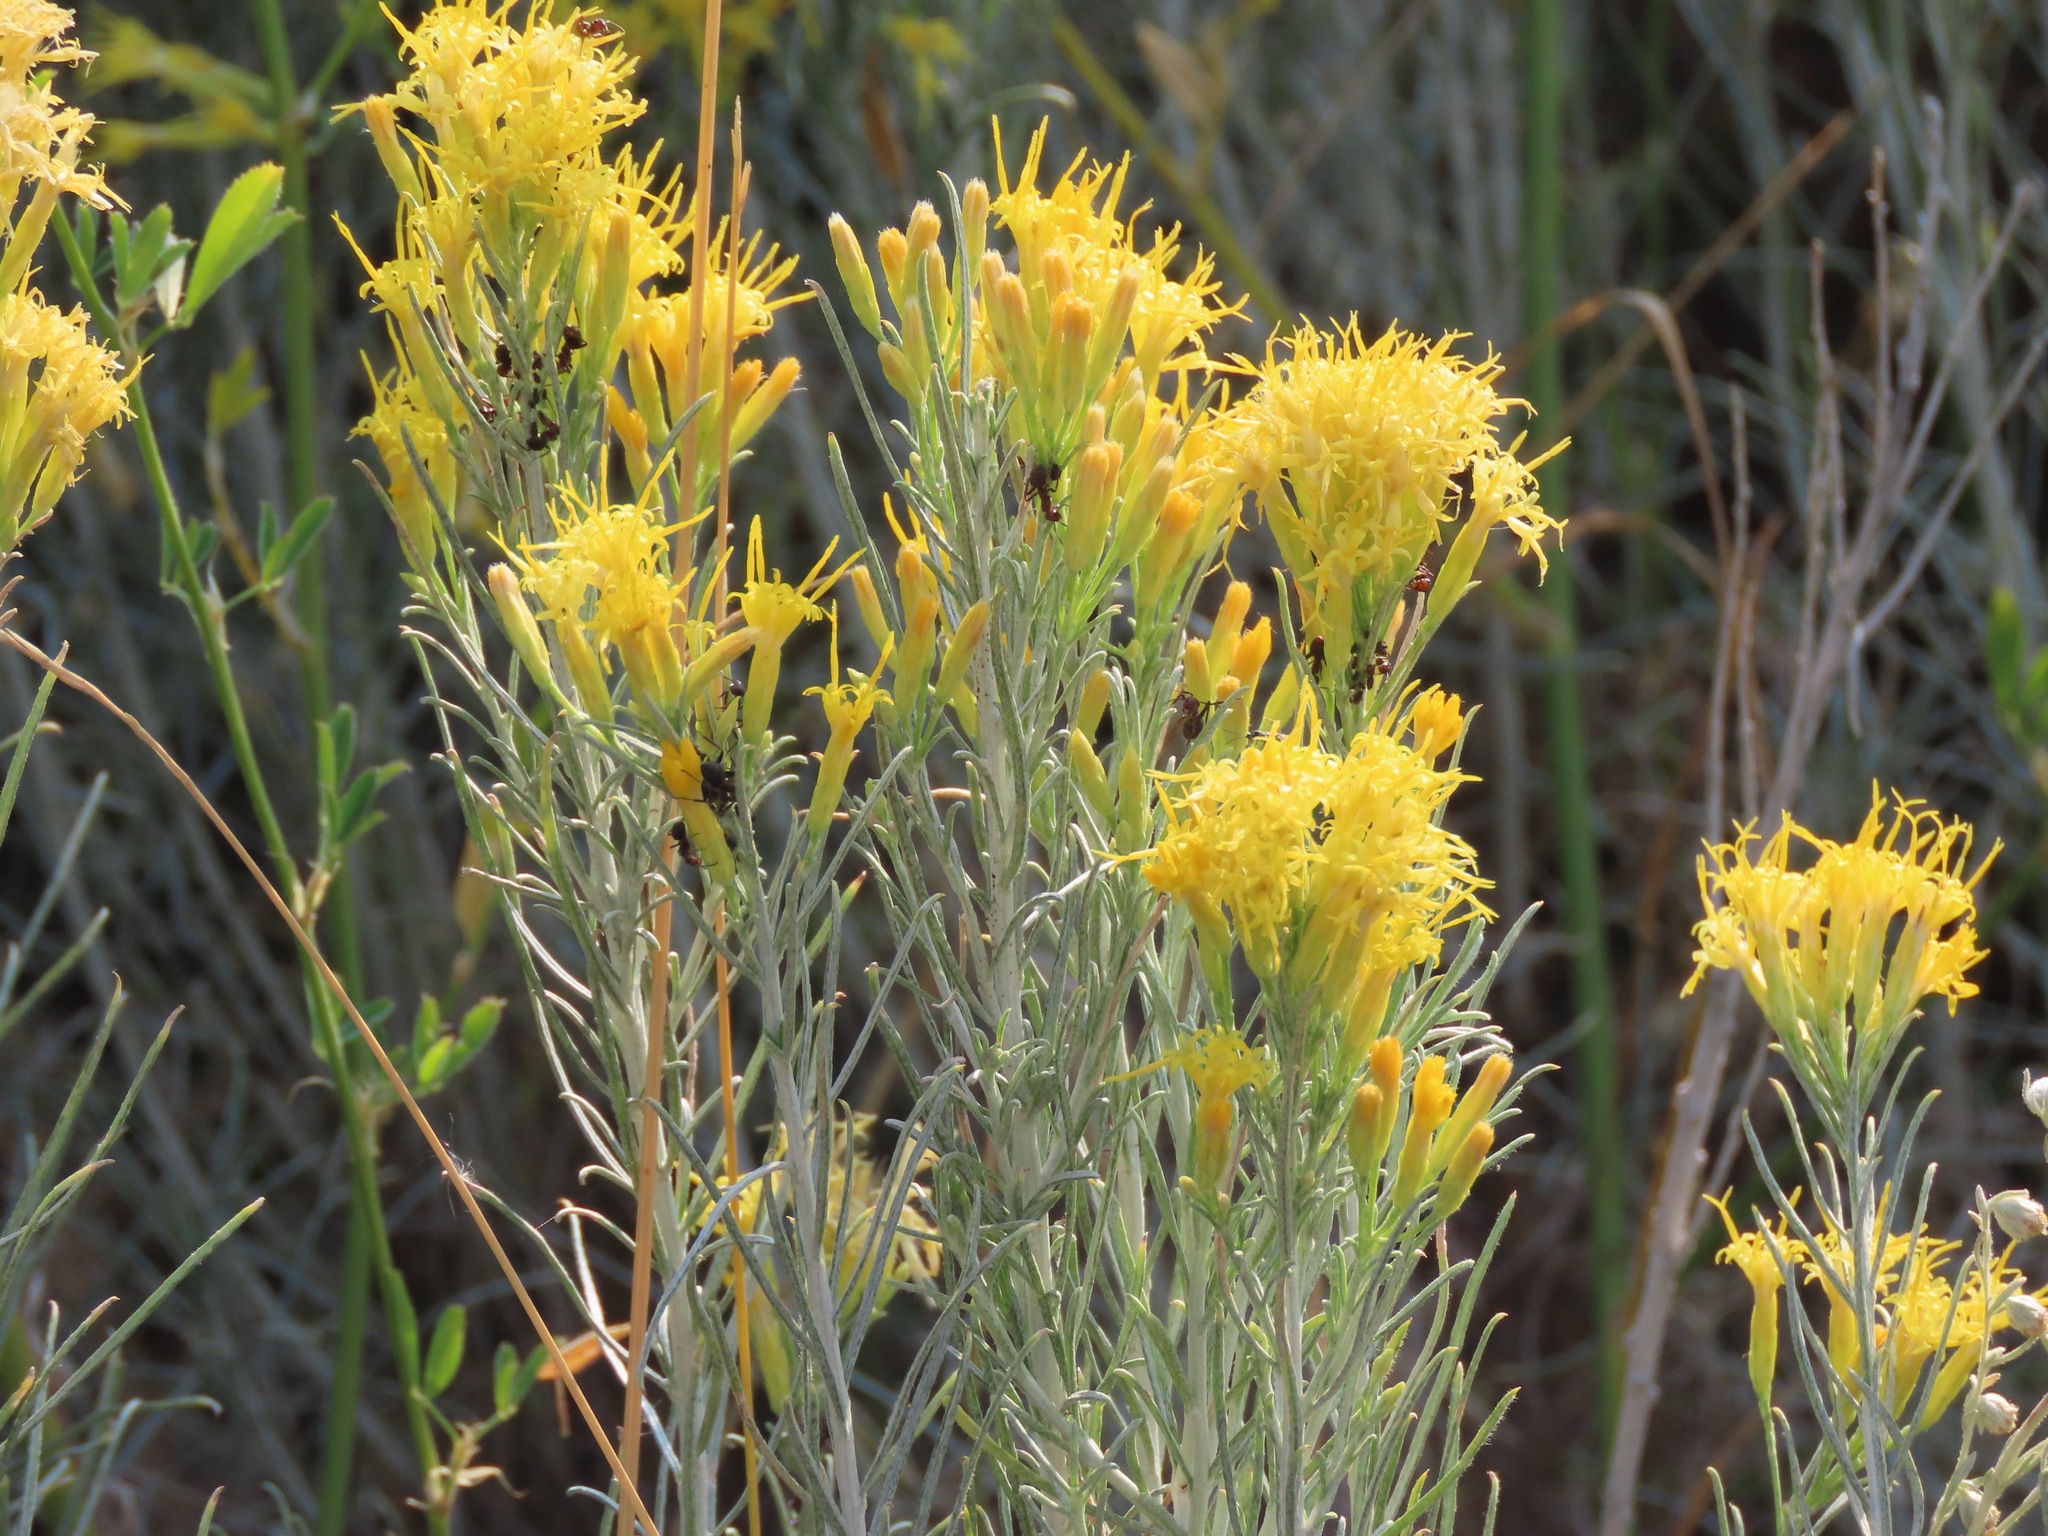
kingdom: Plantae
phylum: Tracheophyta
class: Magnoliopsida
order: Asterales
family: Asteraceae
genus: Ericameria
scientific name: Ericameria nauseosa
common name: Rubber rabbitbrush
